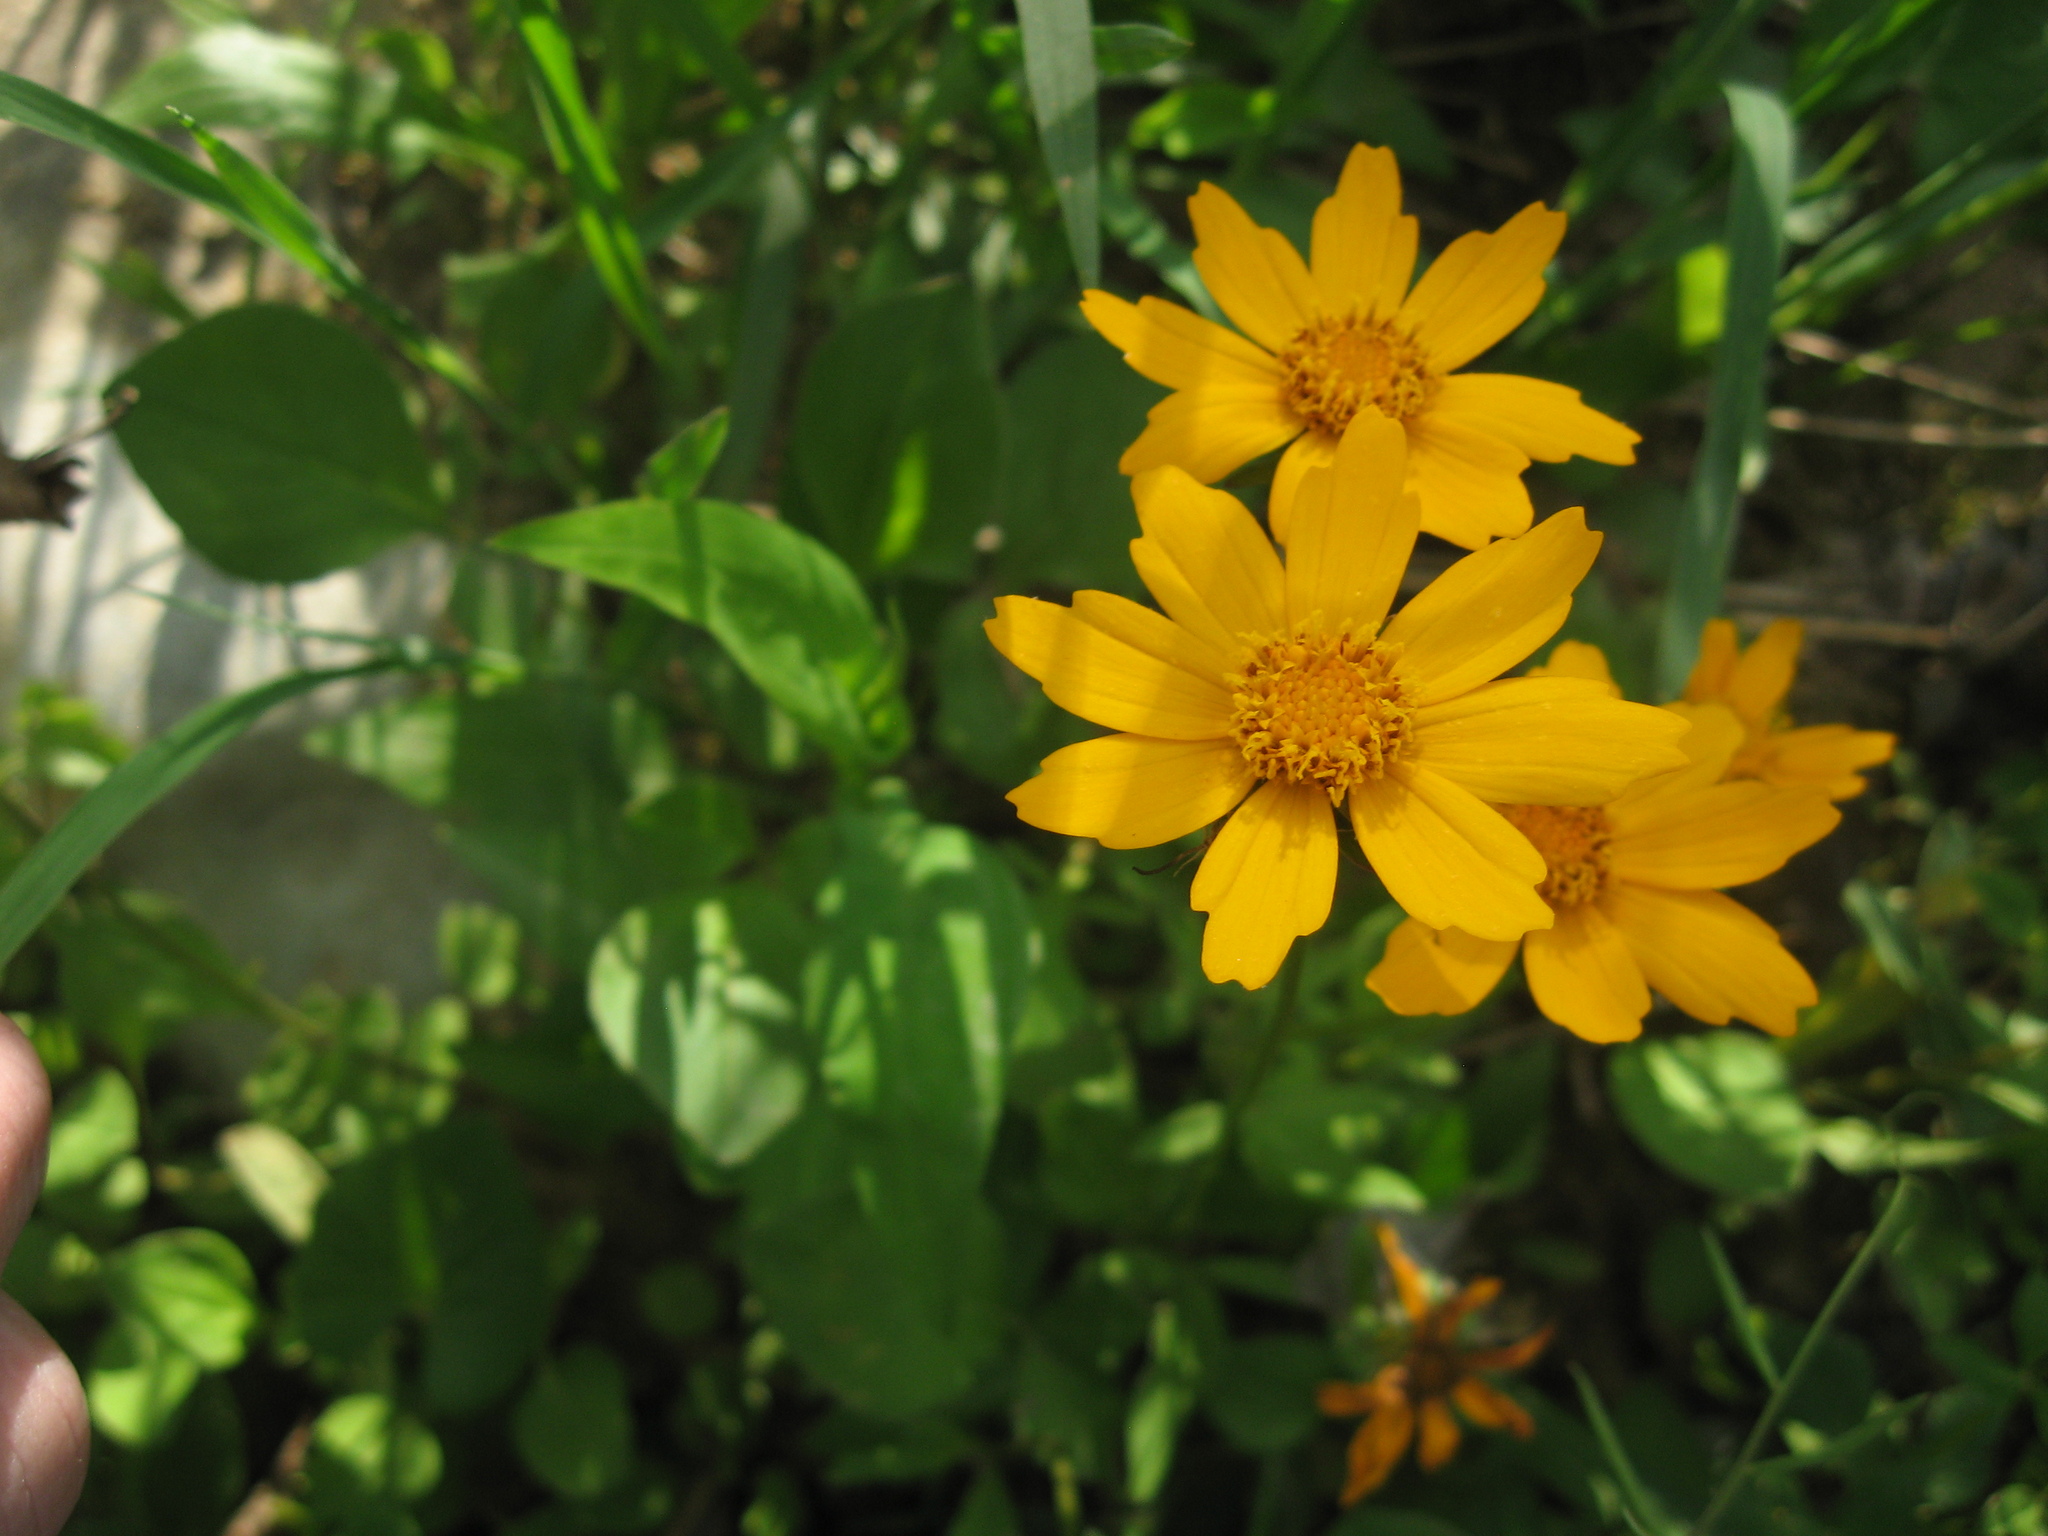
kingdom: Plantae
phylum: Tracheophyta
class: Magnoliopsida
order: Asterales
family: Asteraceae
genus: Coreopsis
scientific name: Coreopsis auriculata
